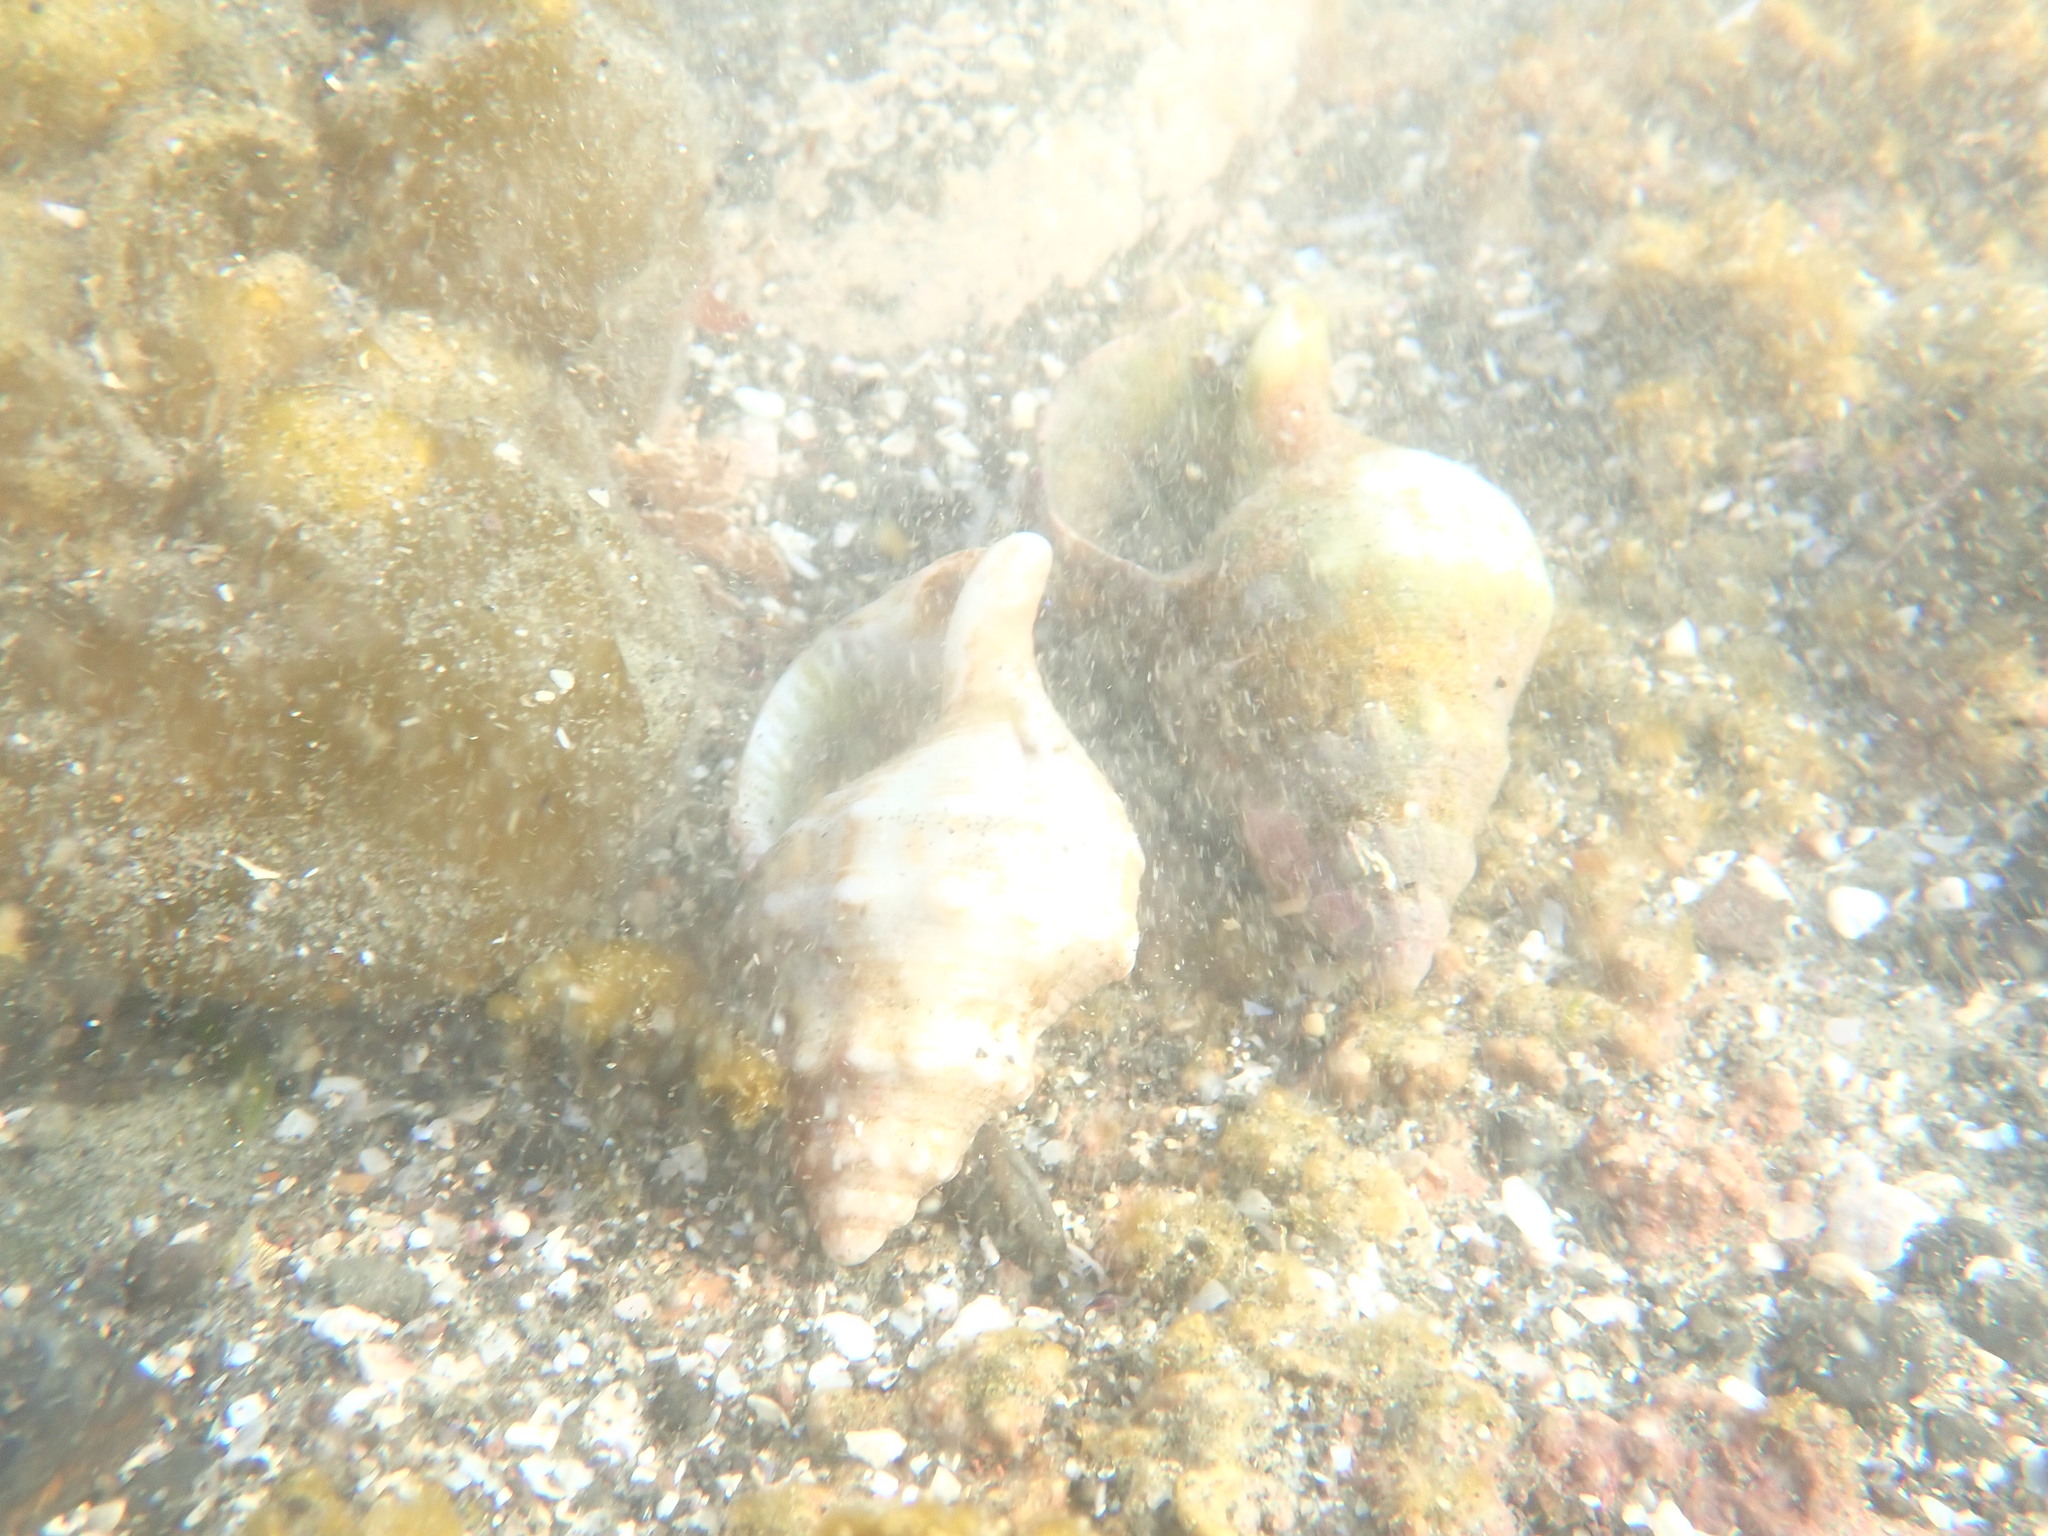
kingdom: Animalia
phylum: Mollusca
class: Gastropoda
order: Neogastropoda
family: Prosiphonidae
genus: Austrofusus
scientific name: Austrofusus glans
